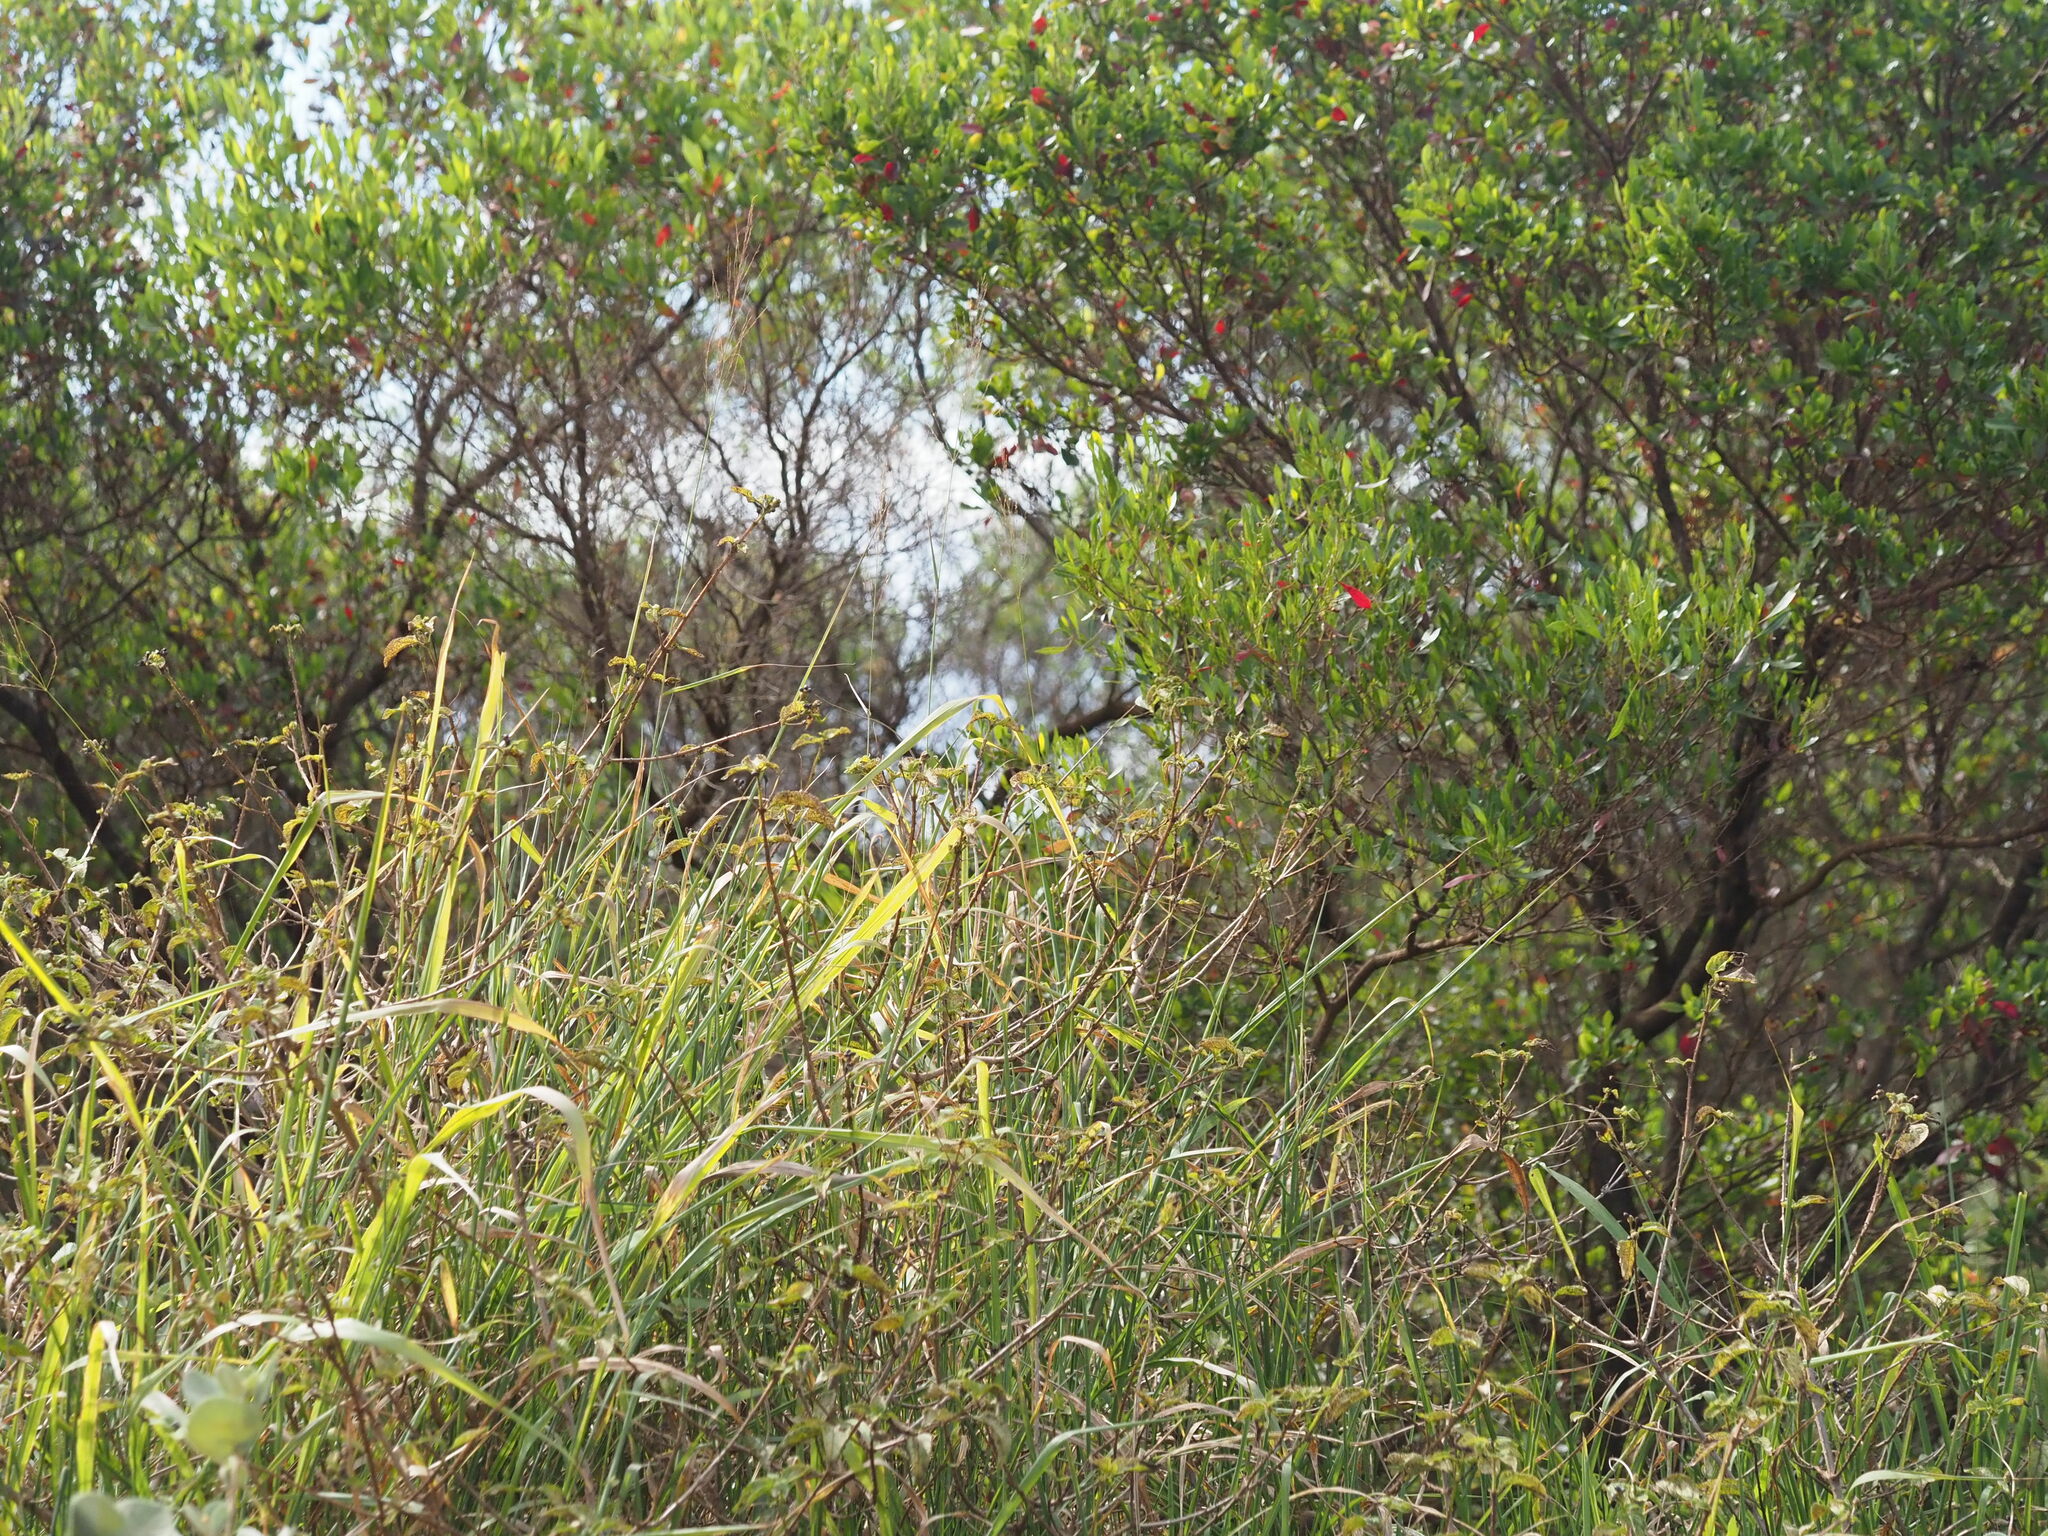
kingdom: Plantae
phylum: Tracheophyta
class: Liliopsida
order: Poales
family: Poaceae
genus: Megathyrsus
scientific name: Megathyrsus maximus
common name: Guineagrass
